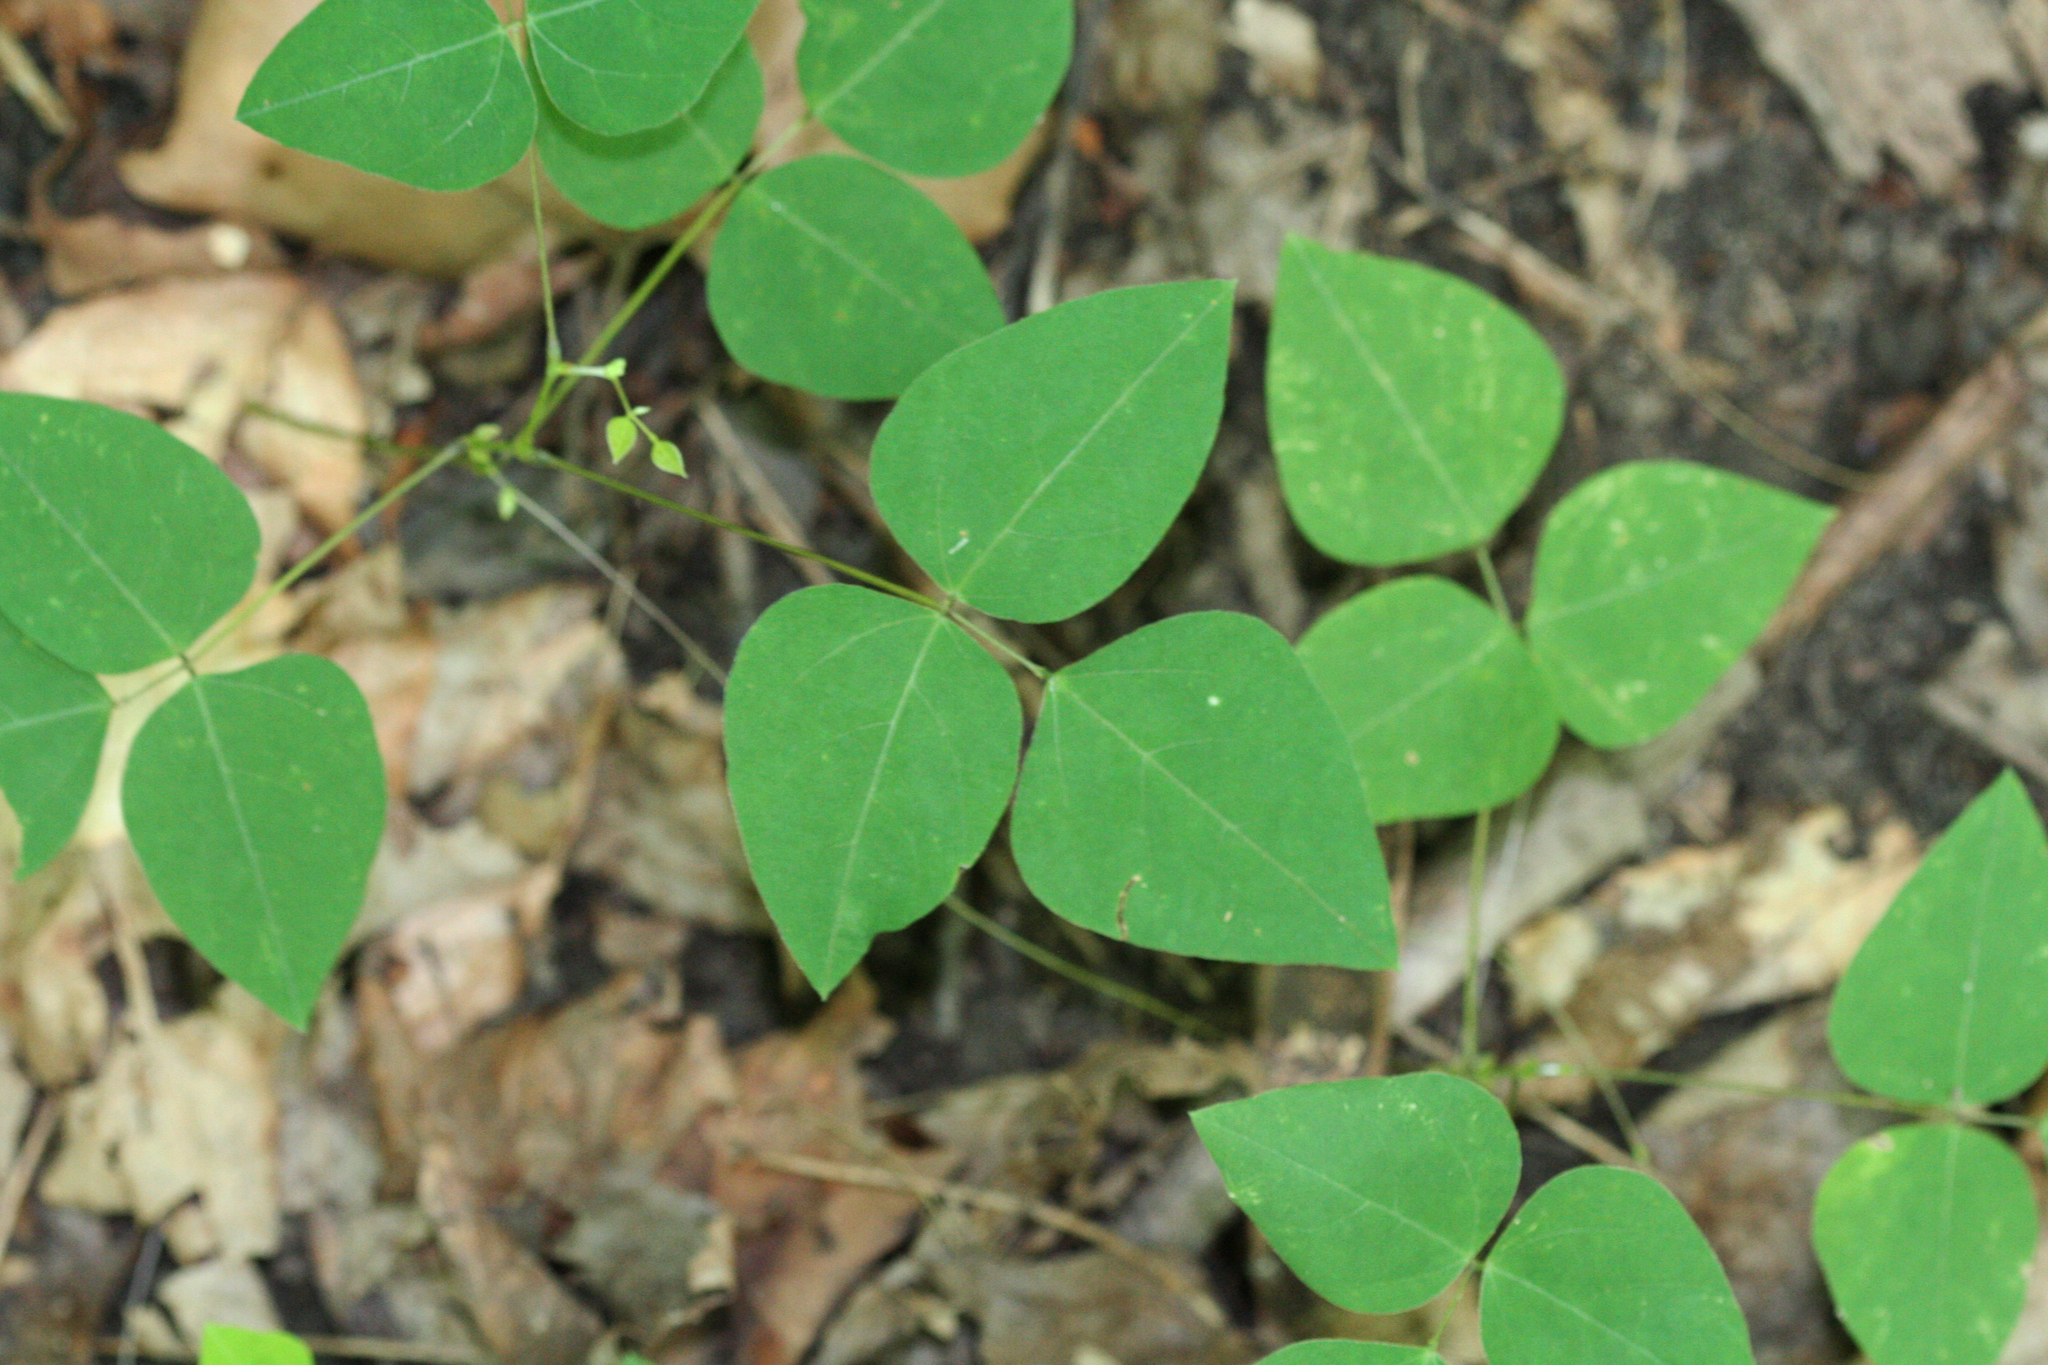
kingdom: Plantae
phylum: Tracheophyta
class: Magnoliopsida
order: Fabales
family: Fabaceae
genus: Amphicarpaea
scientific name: Amphicarpaea bracteata
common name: American hog peanut
